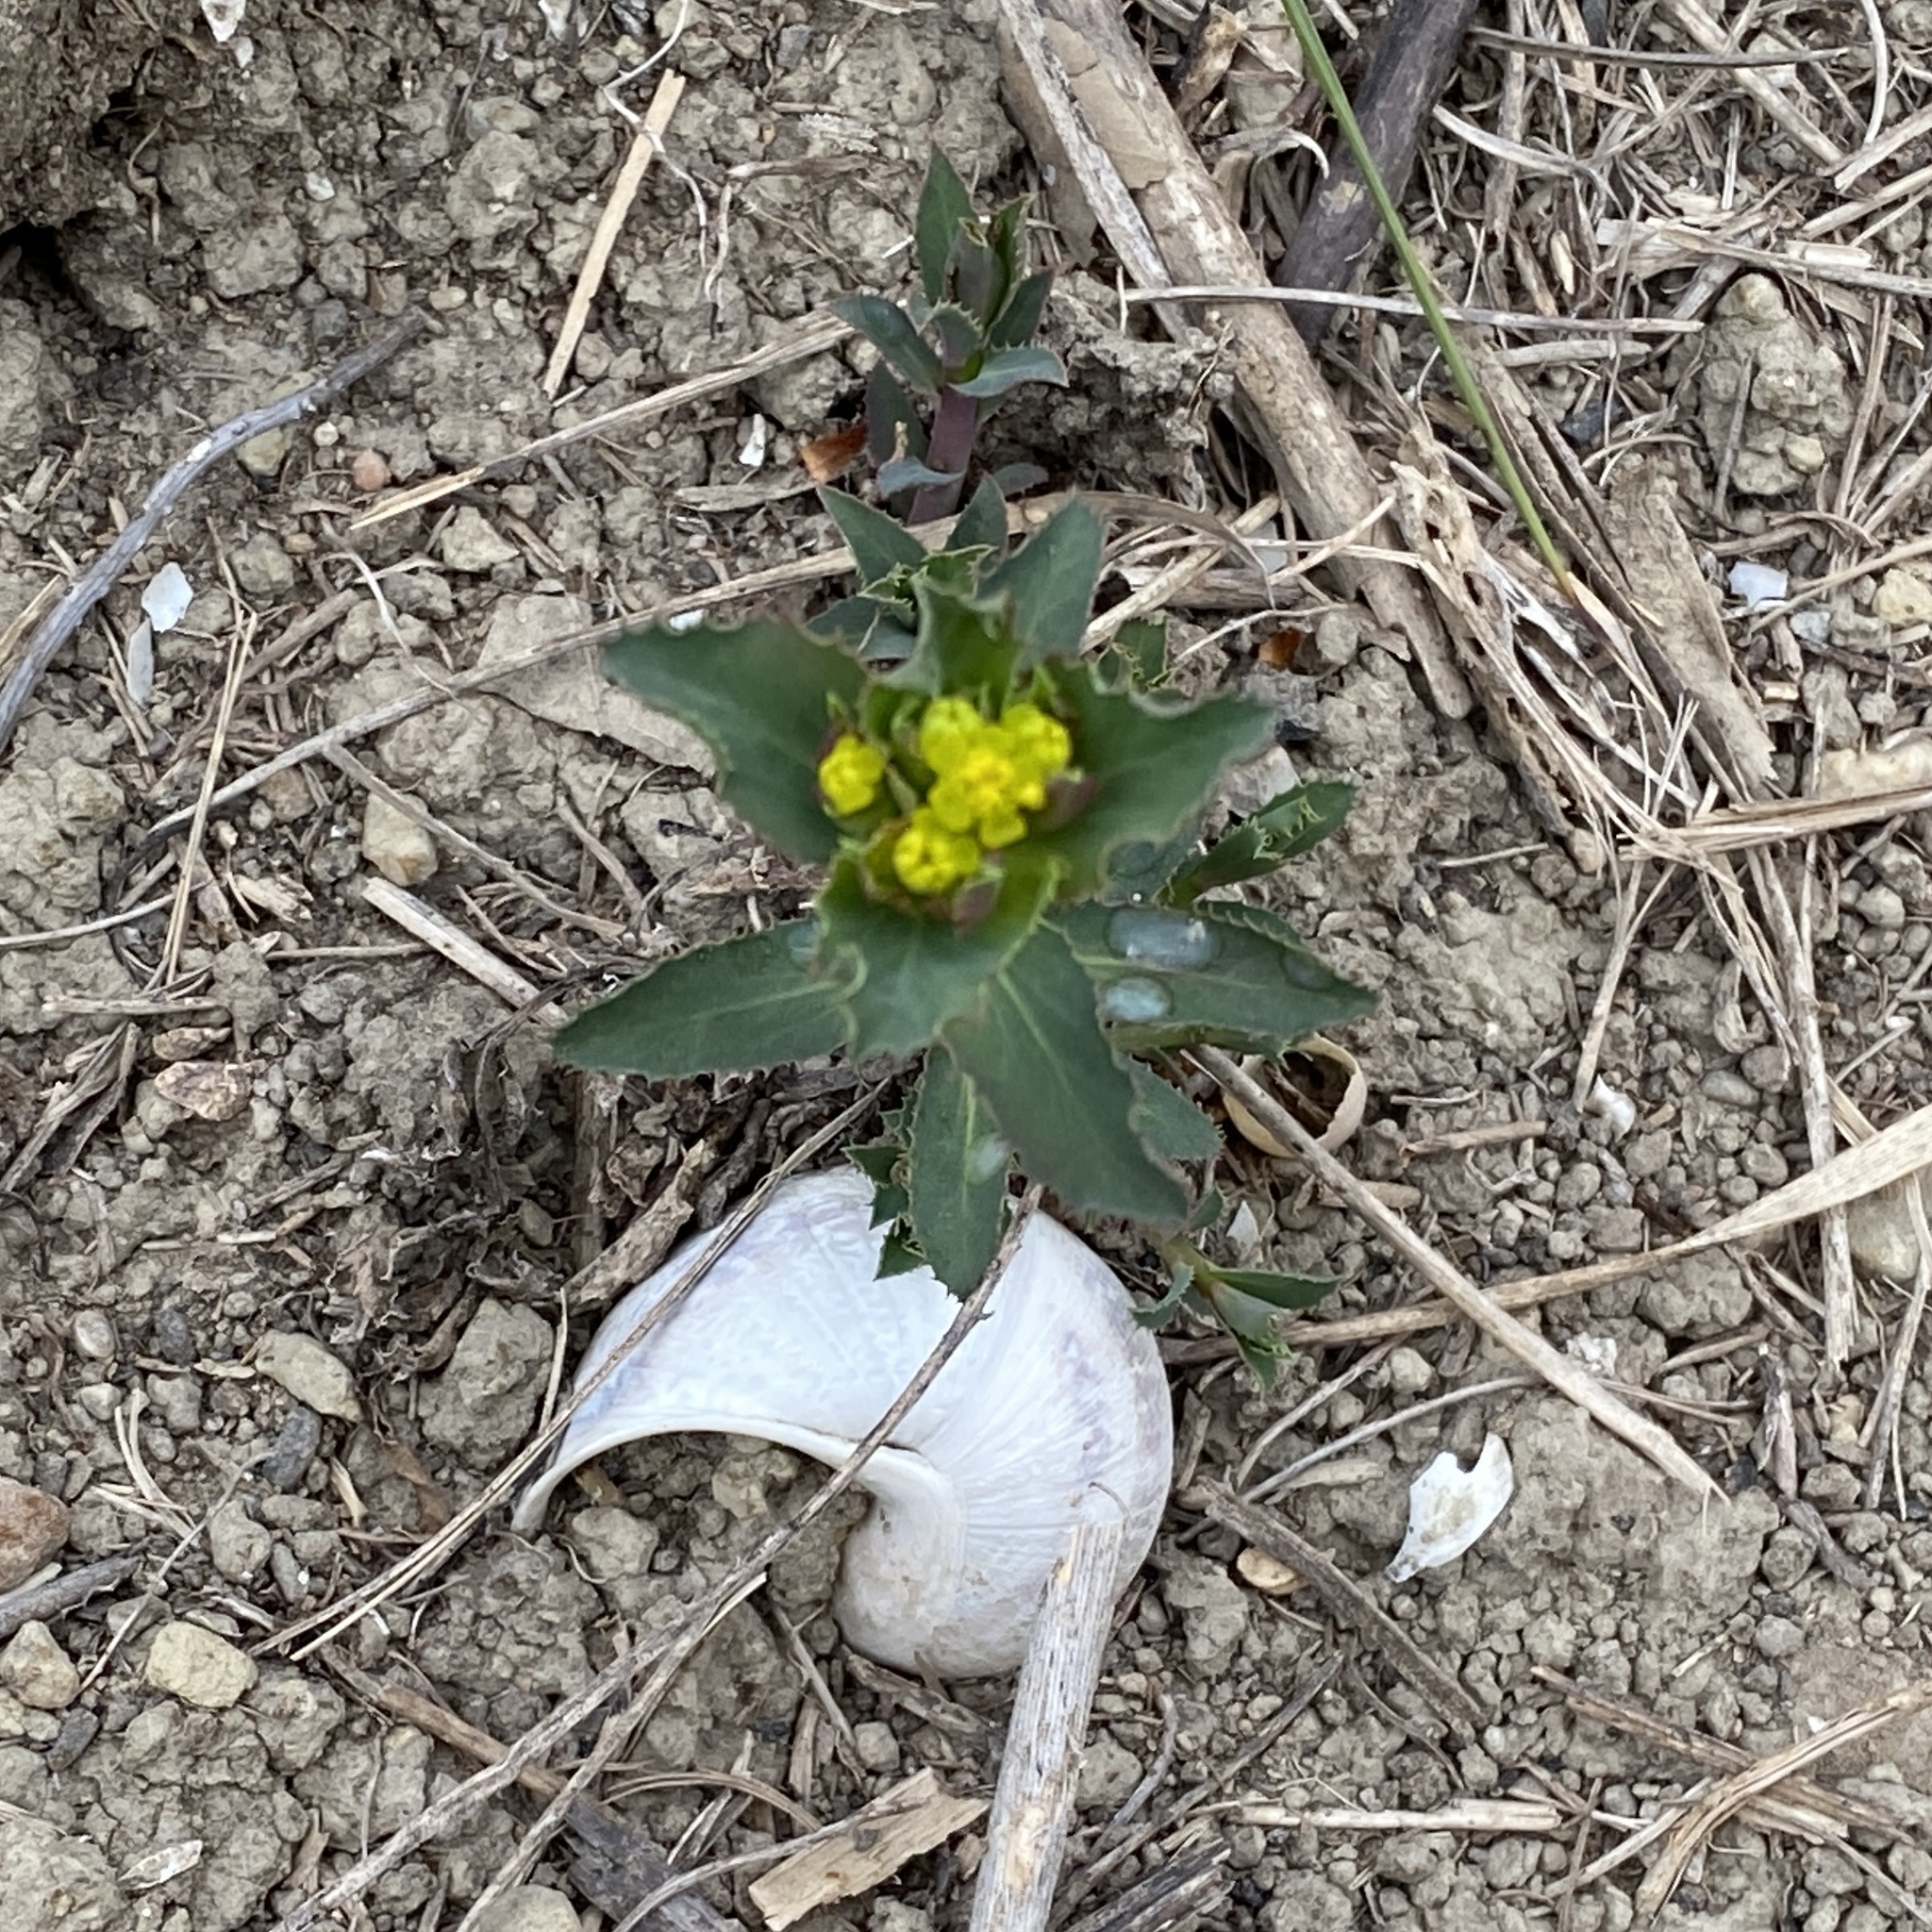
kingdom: Plantae
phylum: Tracheophyta
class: Magnoliopsida
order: Malpighiales
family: Euphorbiaceae
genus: Euphorbia
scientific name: Euphorbia serrata
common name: Serrate spurge
